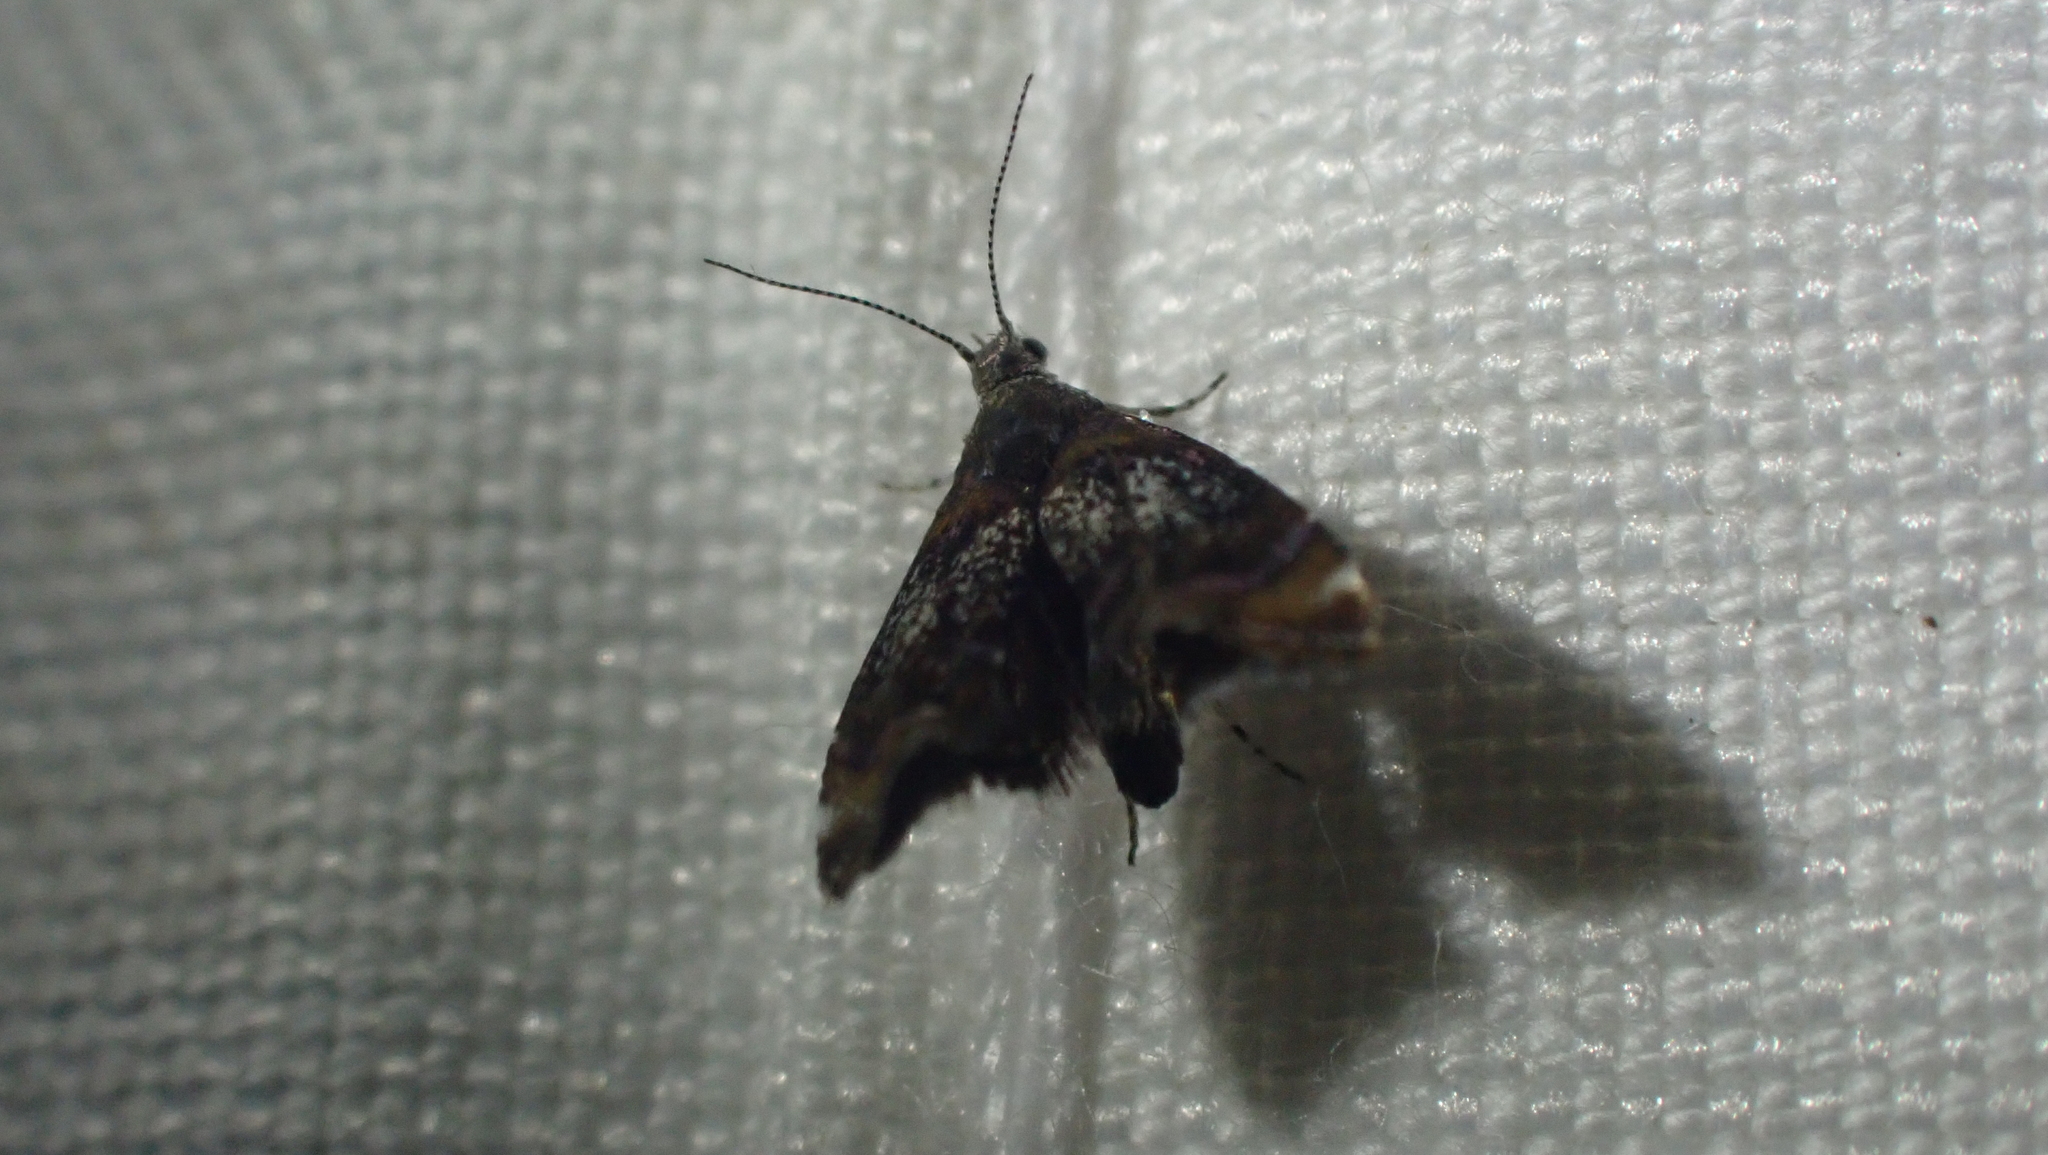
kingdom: Animalia
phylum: Arthropoda
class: Insecta
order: Lepidoptera
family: Choreutidae
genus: Prochoreutis
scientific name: Prochoreutis inflatella
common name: Skullcap skeletonizer moth
